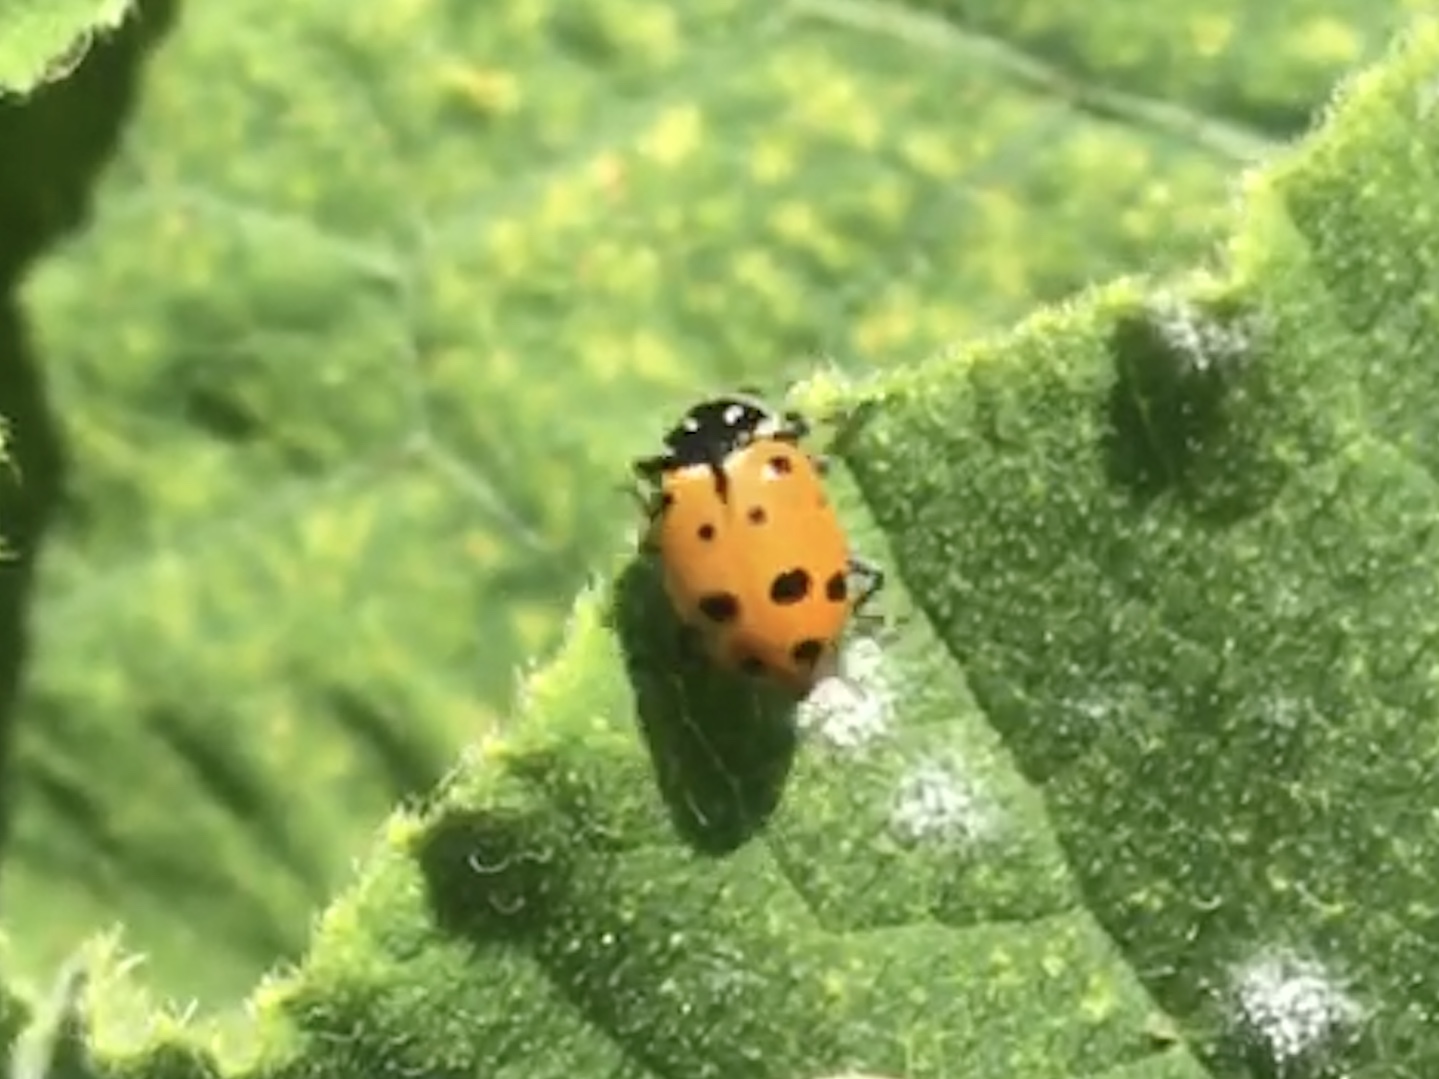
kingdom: Animalia
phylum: Arthropoda
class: Insecta
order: Coleoptera
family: Coccinellidae
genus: Hippodamia
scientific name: Hippodamia convergens
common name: Convergent lady beetle
